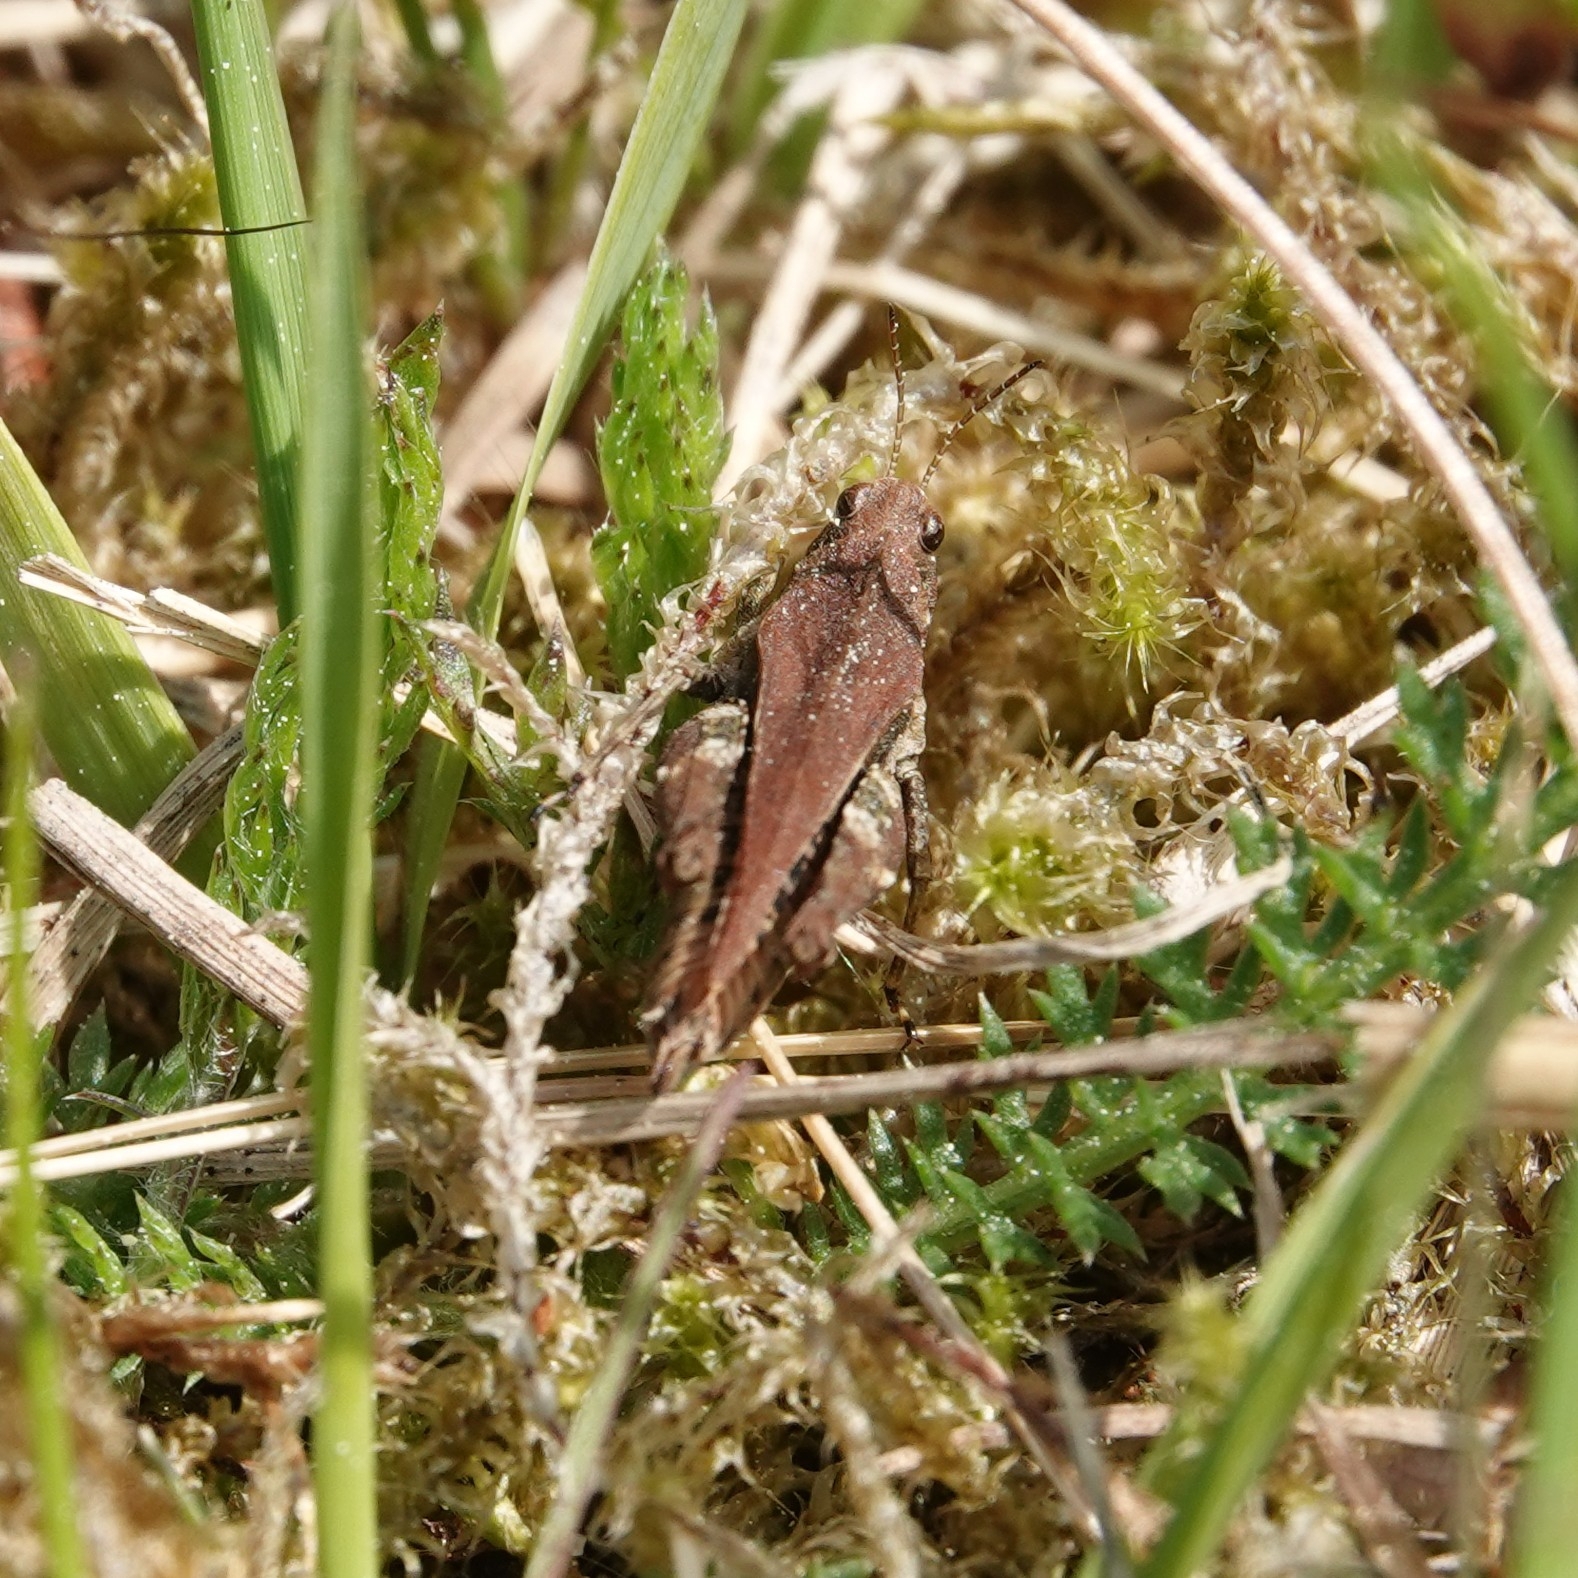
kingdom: Animalia
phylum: Arthropoda
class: Insecta
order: Orthoptera
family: Tetrigidae
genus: Tetrix
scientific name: Tetrix undulata
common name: Common groundhopper
